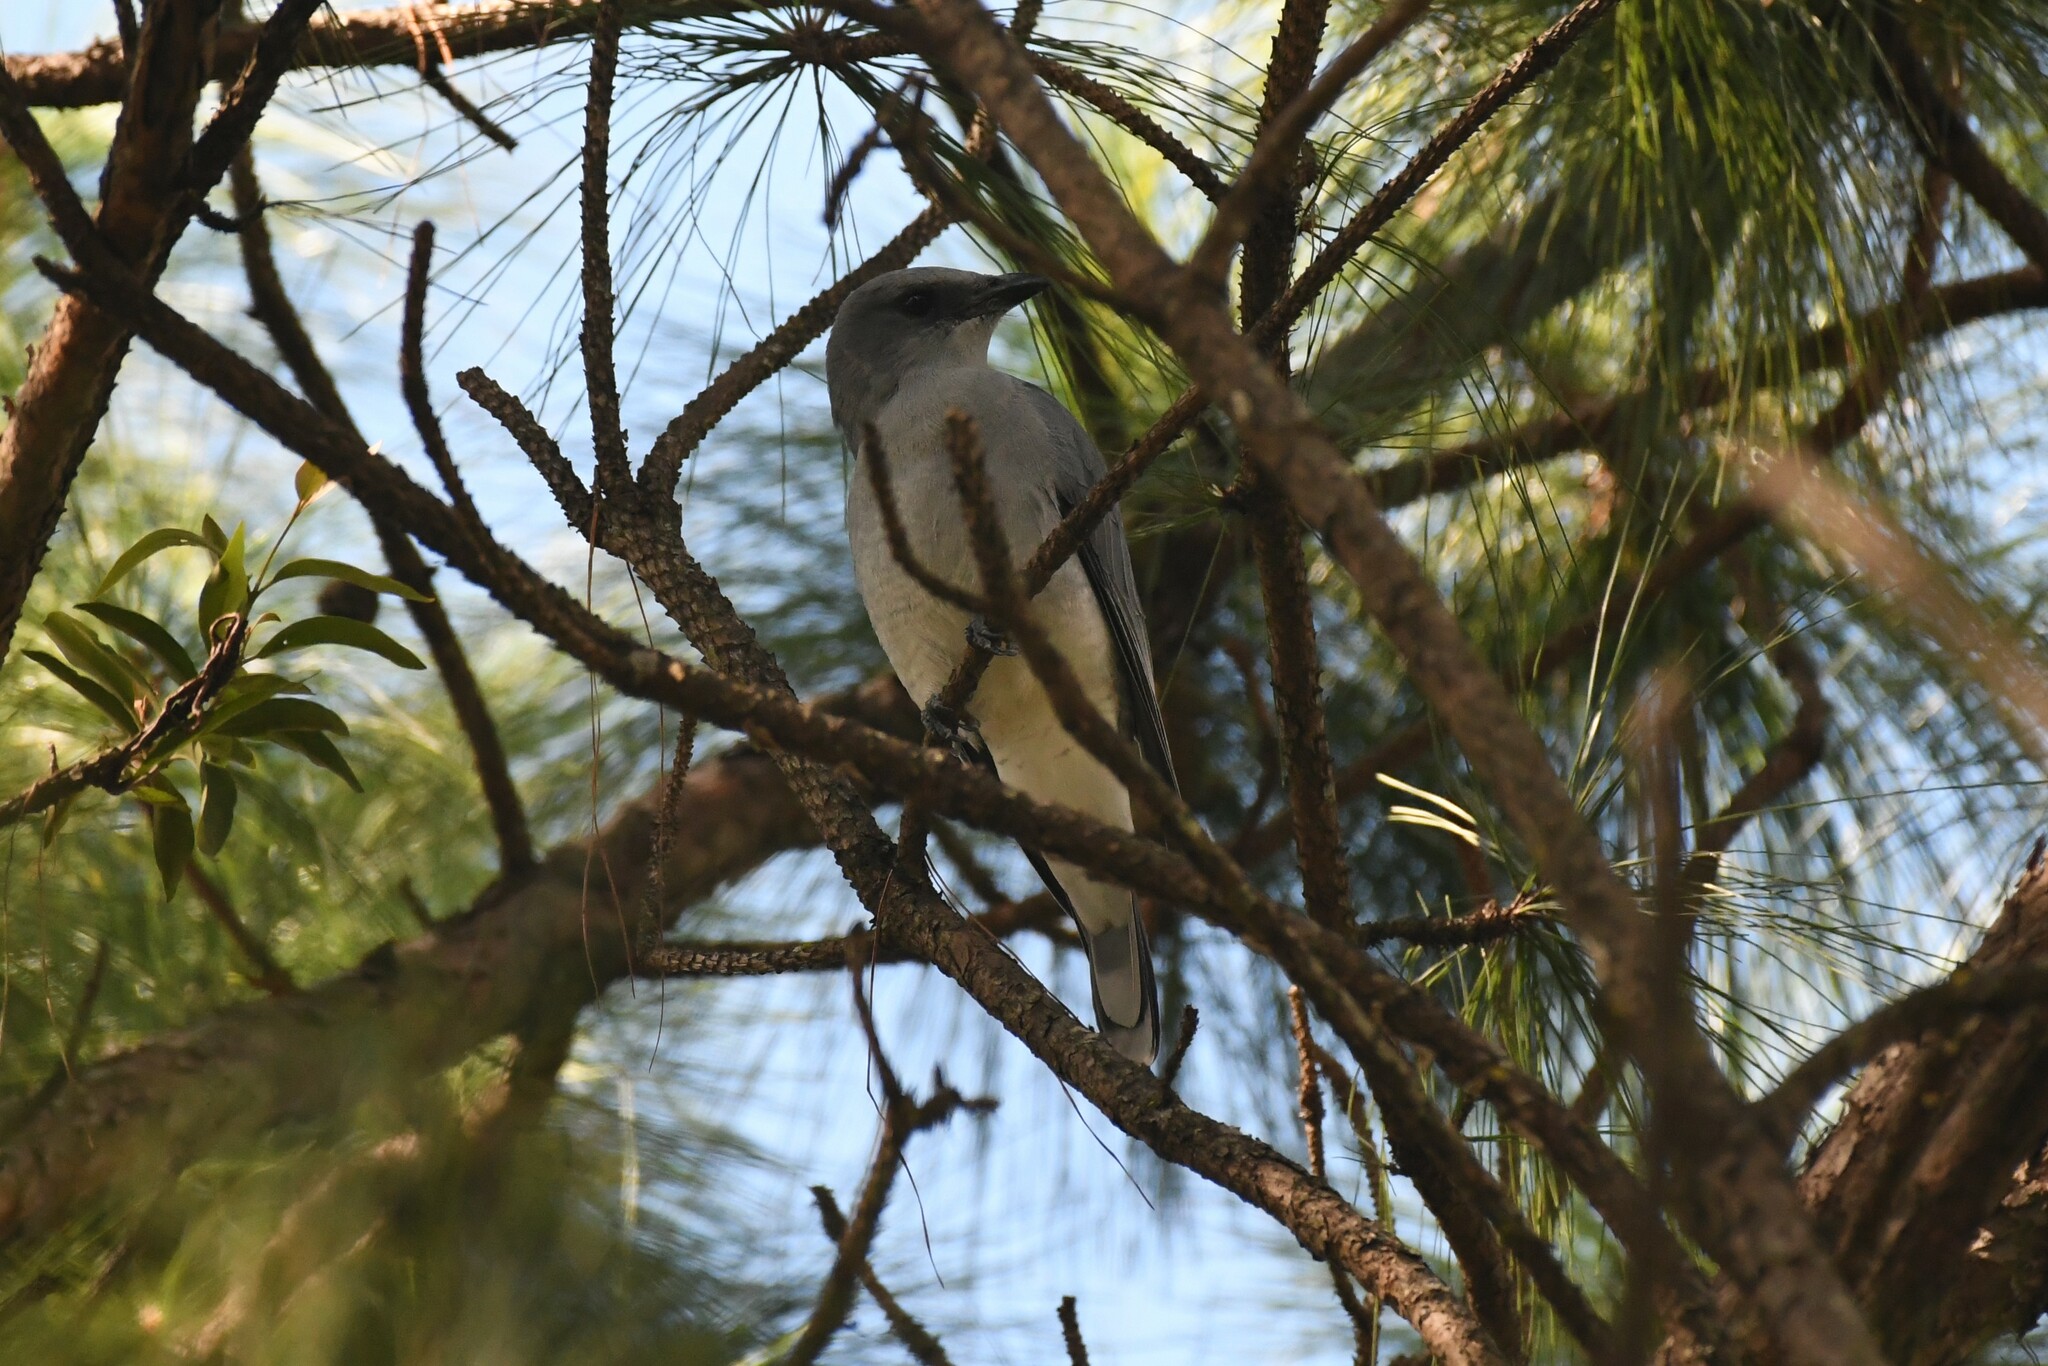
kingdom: Animalia
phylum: Chordata
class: Aves
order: Passeriformes
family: Campephagidae
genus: Coracina
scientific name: Coracina macei
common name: Large cuckooshrike
